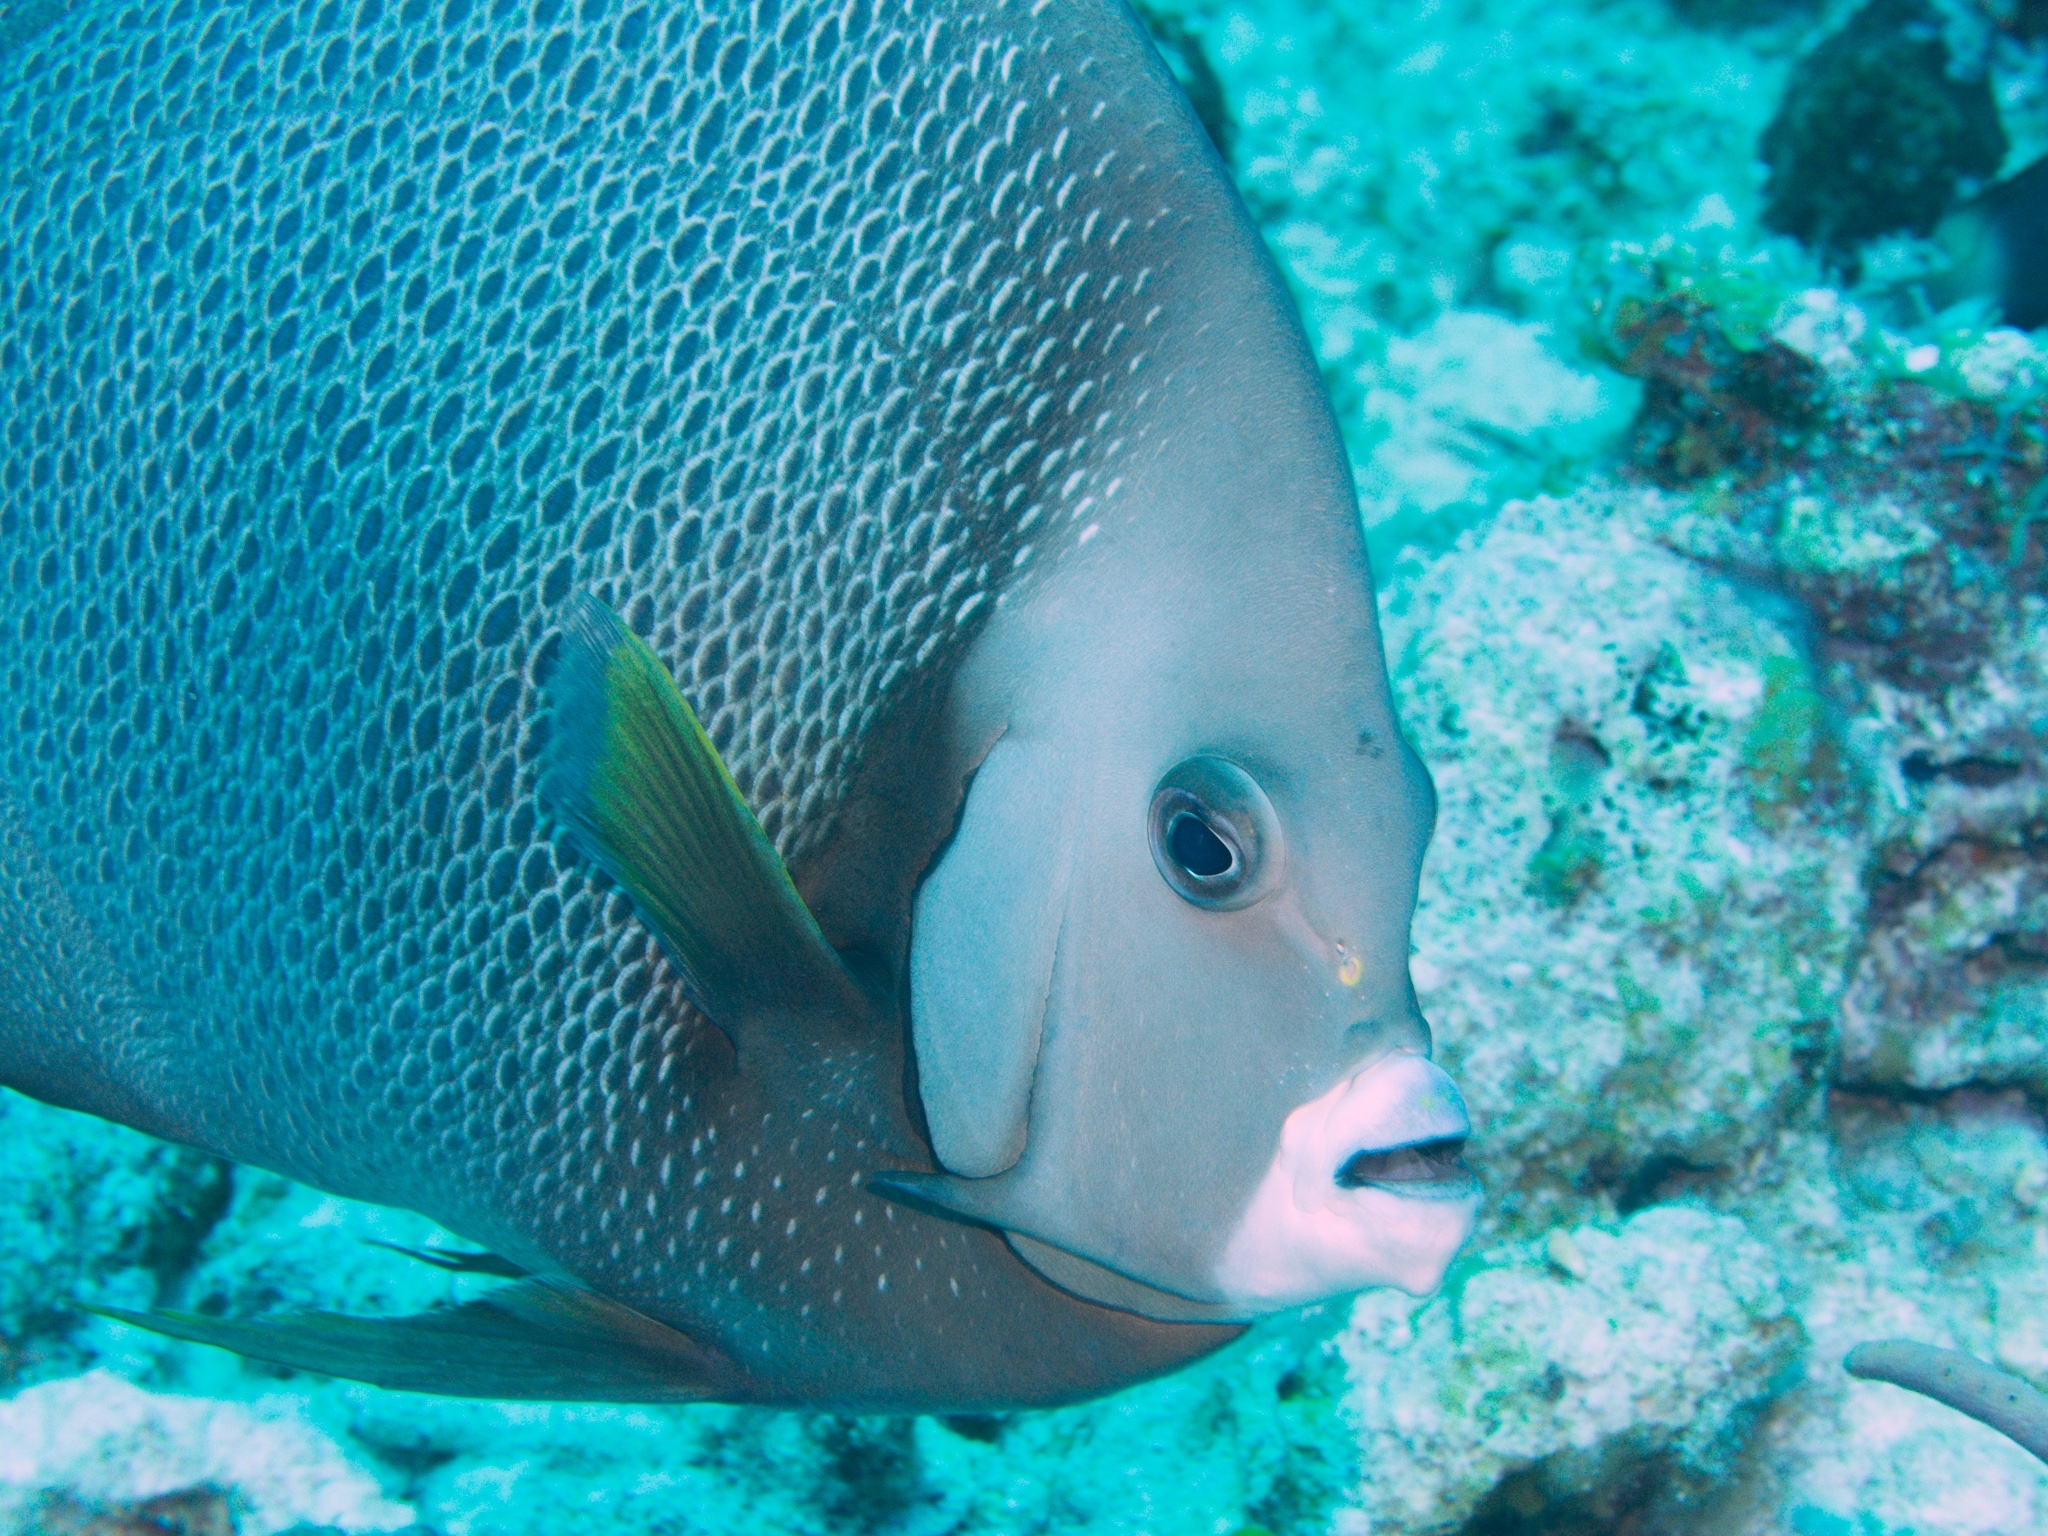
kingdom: Animalia
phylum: Chordata
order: Perciformes
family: Pomacanthidae
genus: Pomacanthus
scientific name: Pomacanthus arcuatus
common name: Gray angelfish
